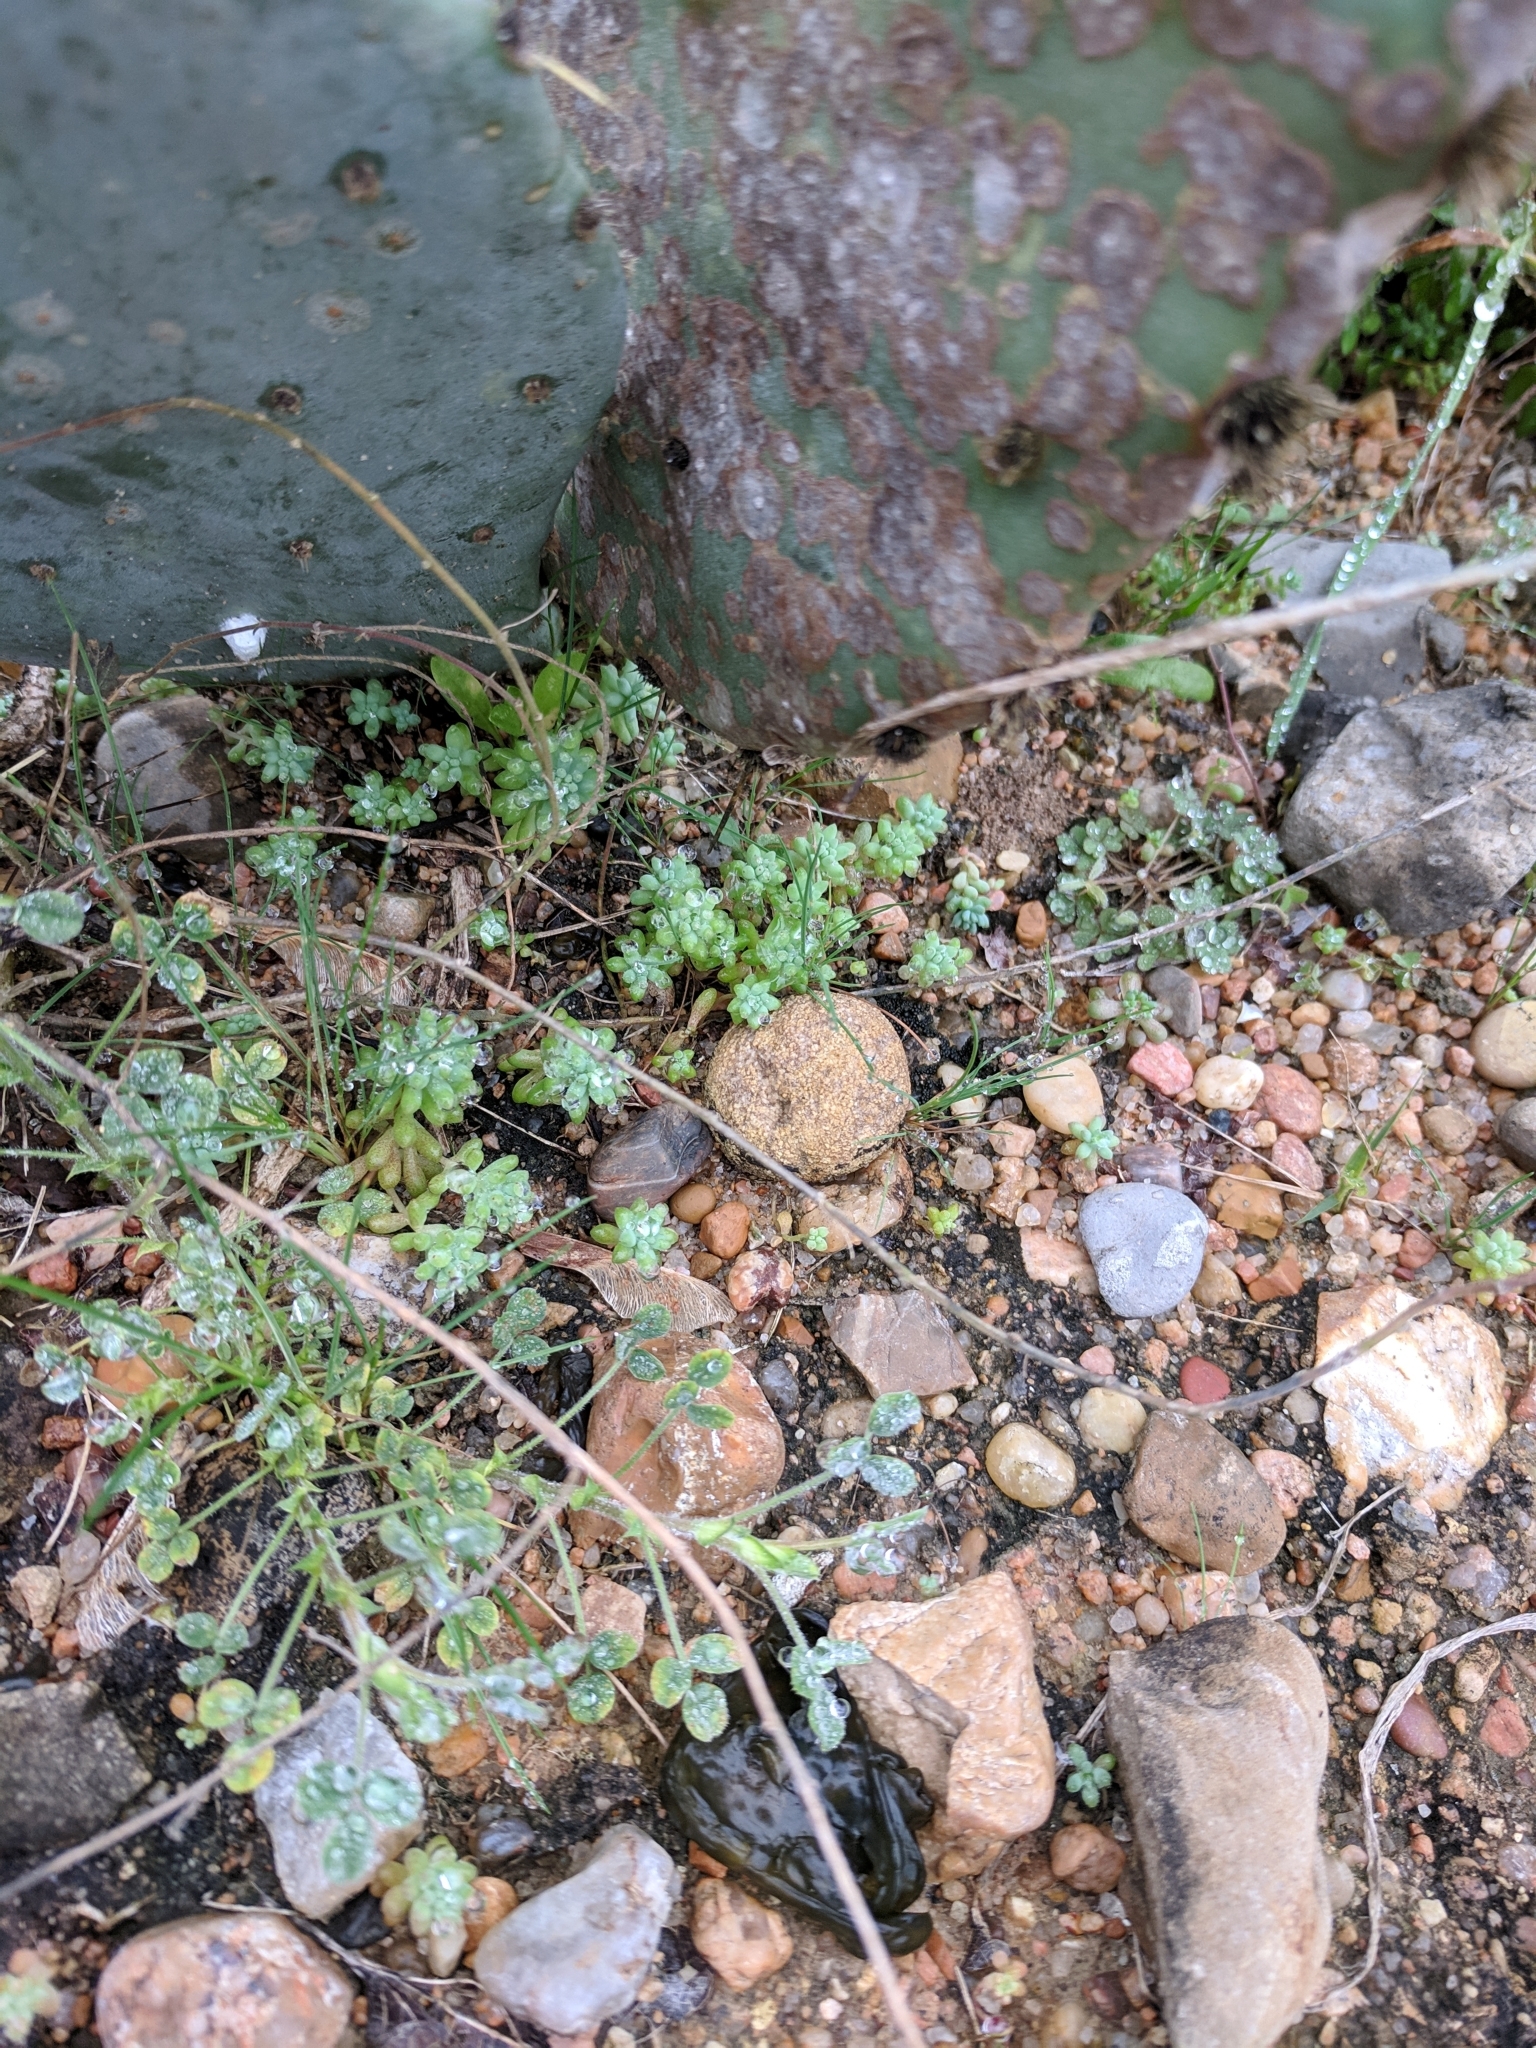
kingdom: Plantae
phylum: Tracheophyta
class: Magnoliopsida
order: Saxifragales
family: Crassulaceae
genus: Sedum
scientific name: Sedum nuttallii
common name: Yellow stonecrop
